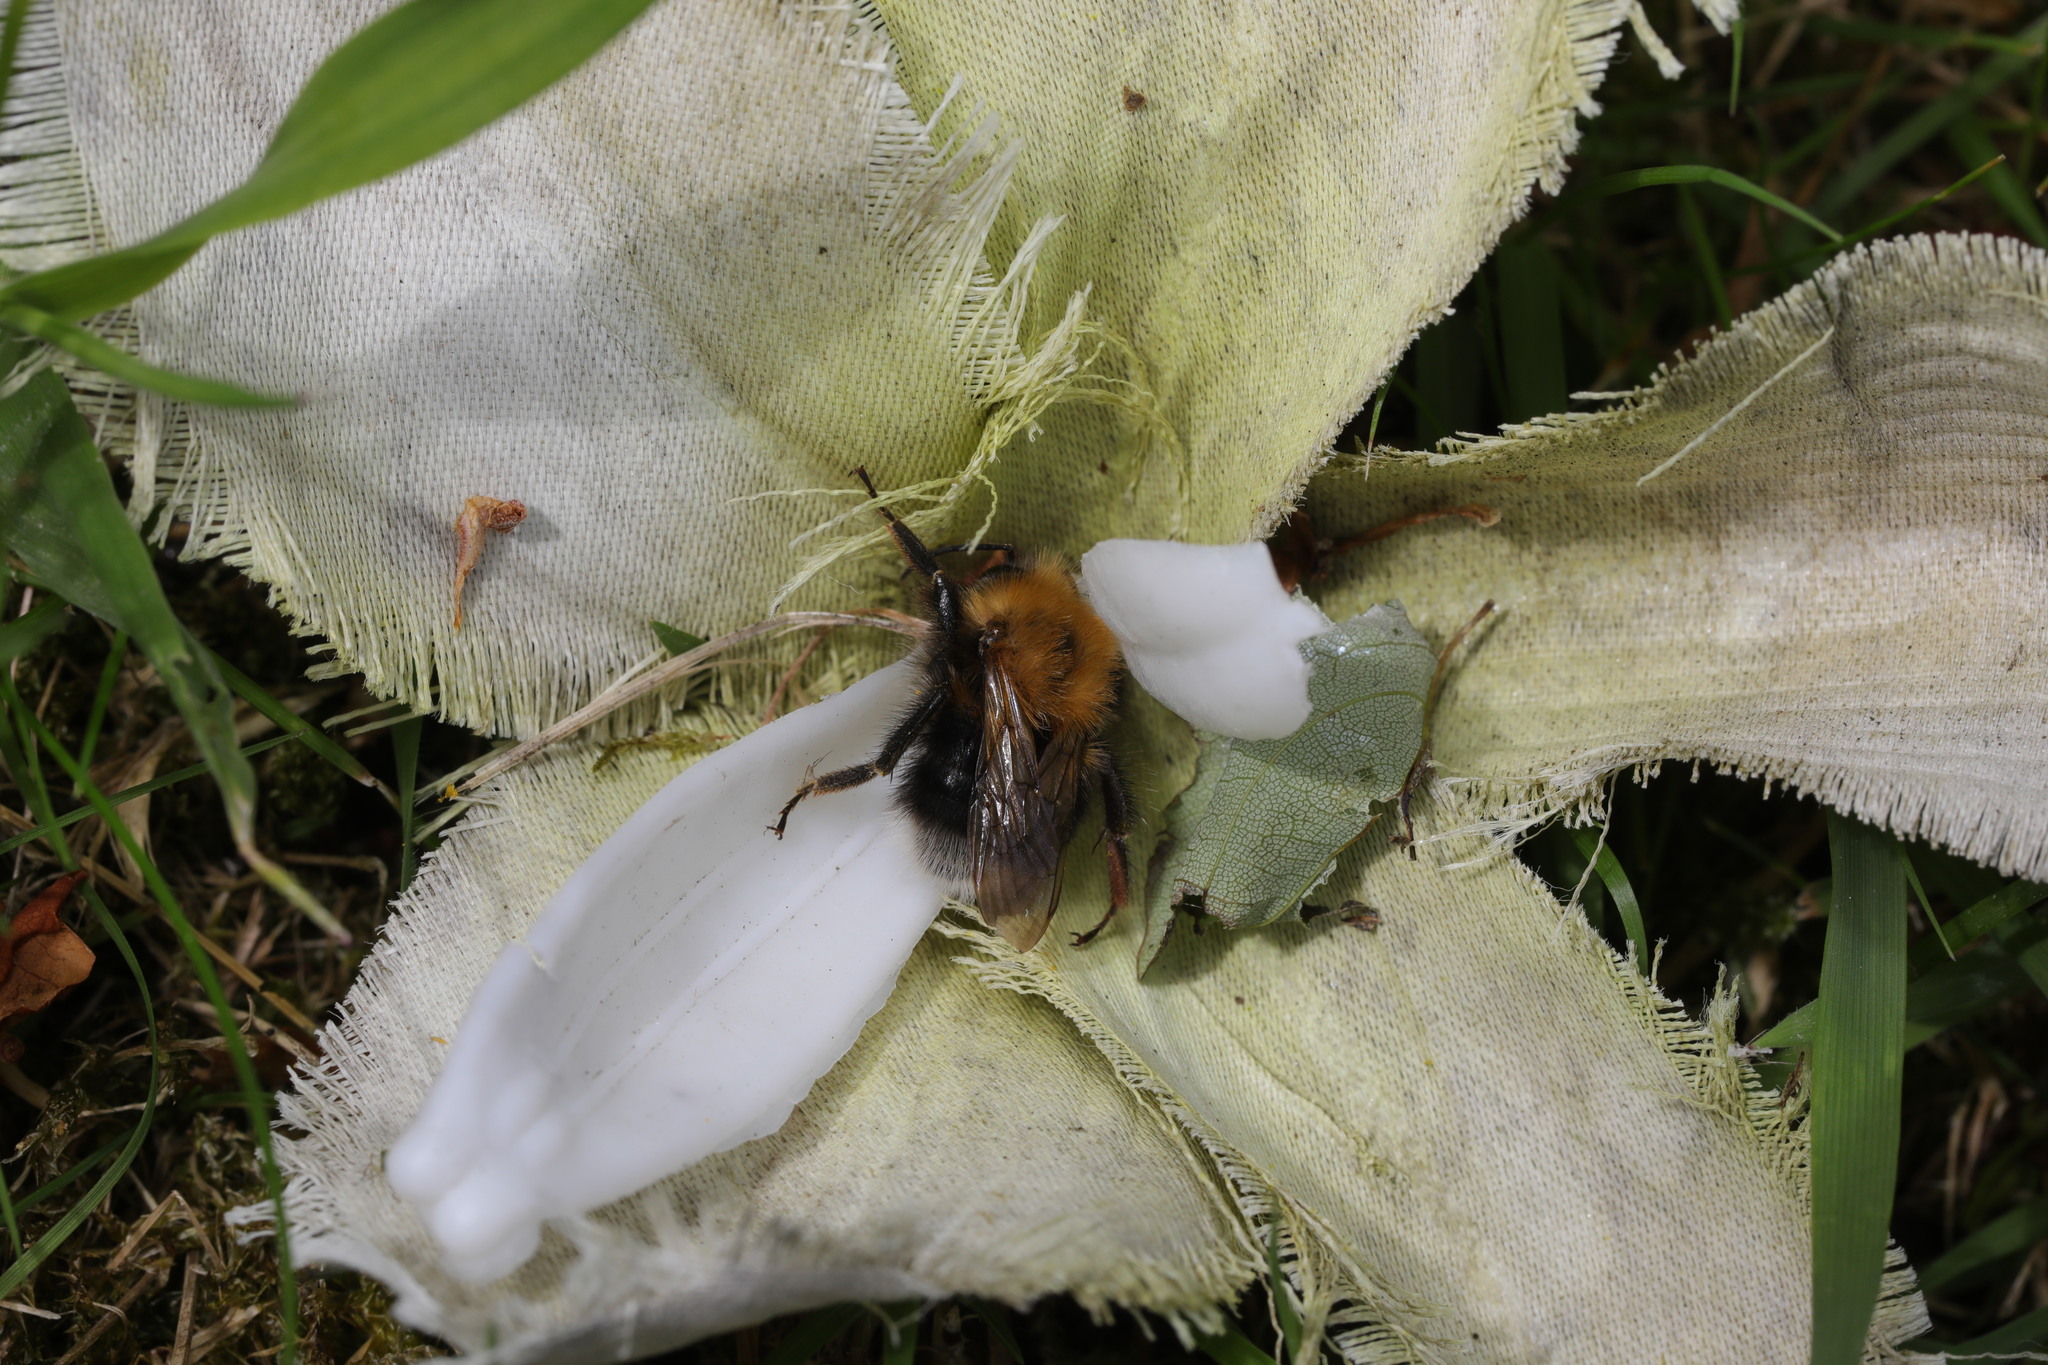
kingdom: Animalia
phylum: Arthropoda
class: Insecta
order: Hymenoptera
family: Apidae
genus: Bombus
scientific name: Bombus hypnorum
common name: New garden bumblebee
